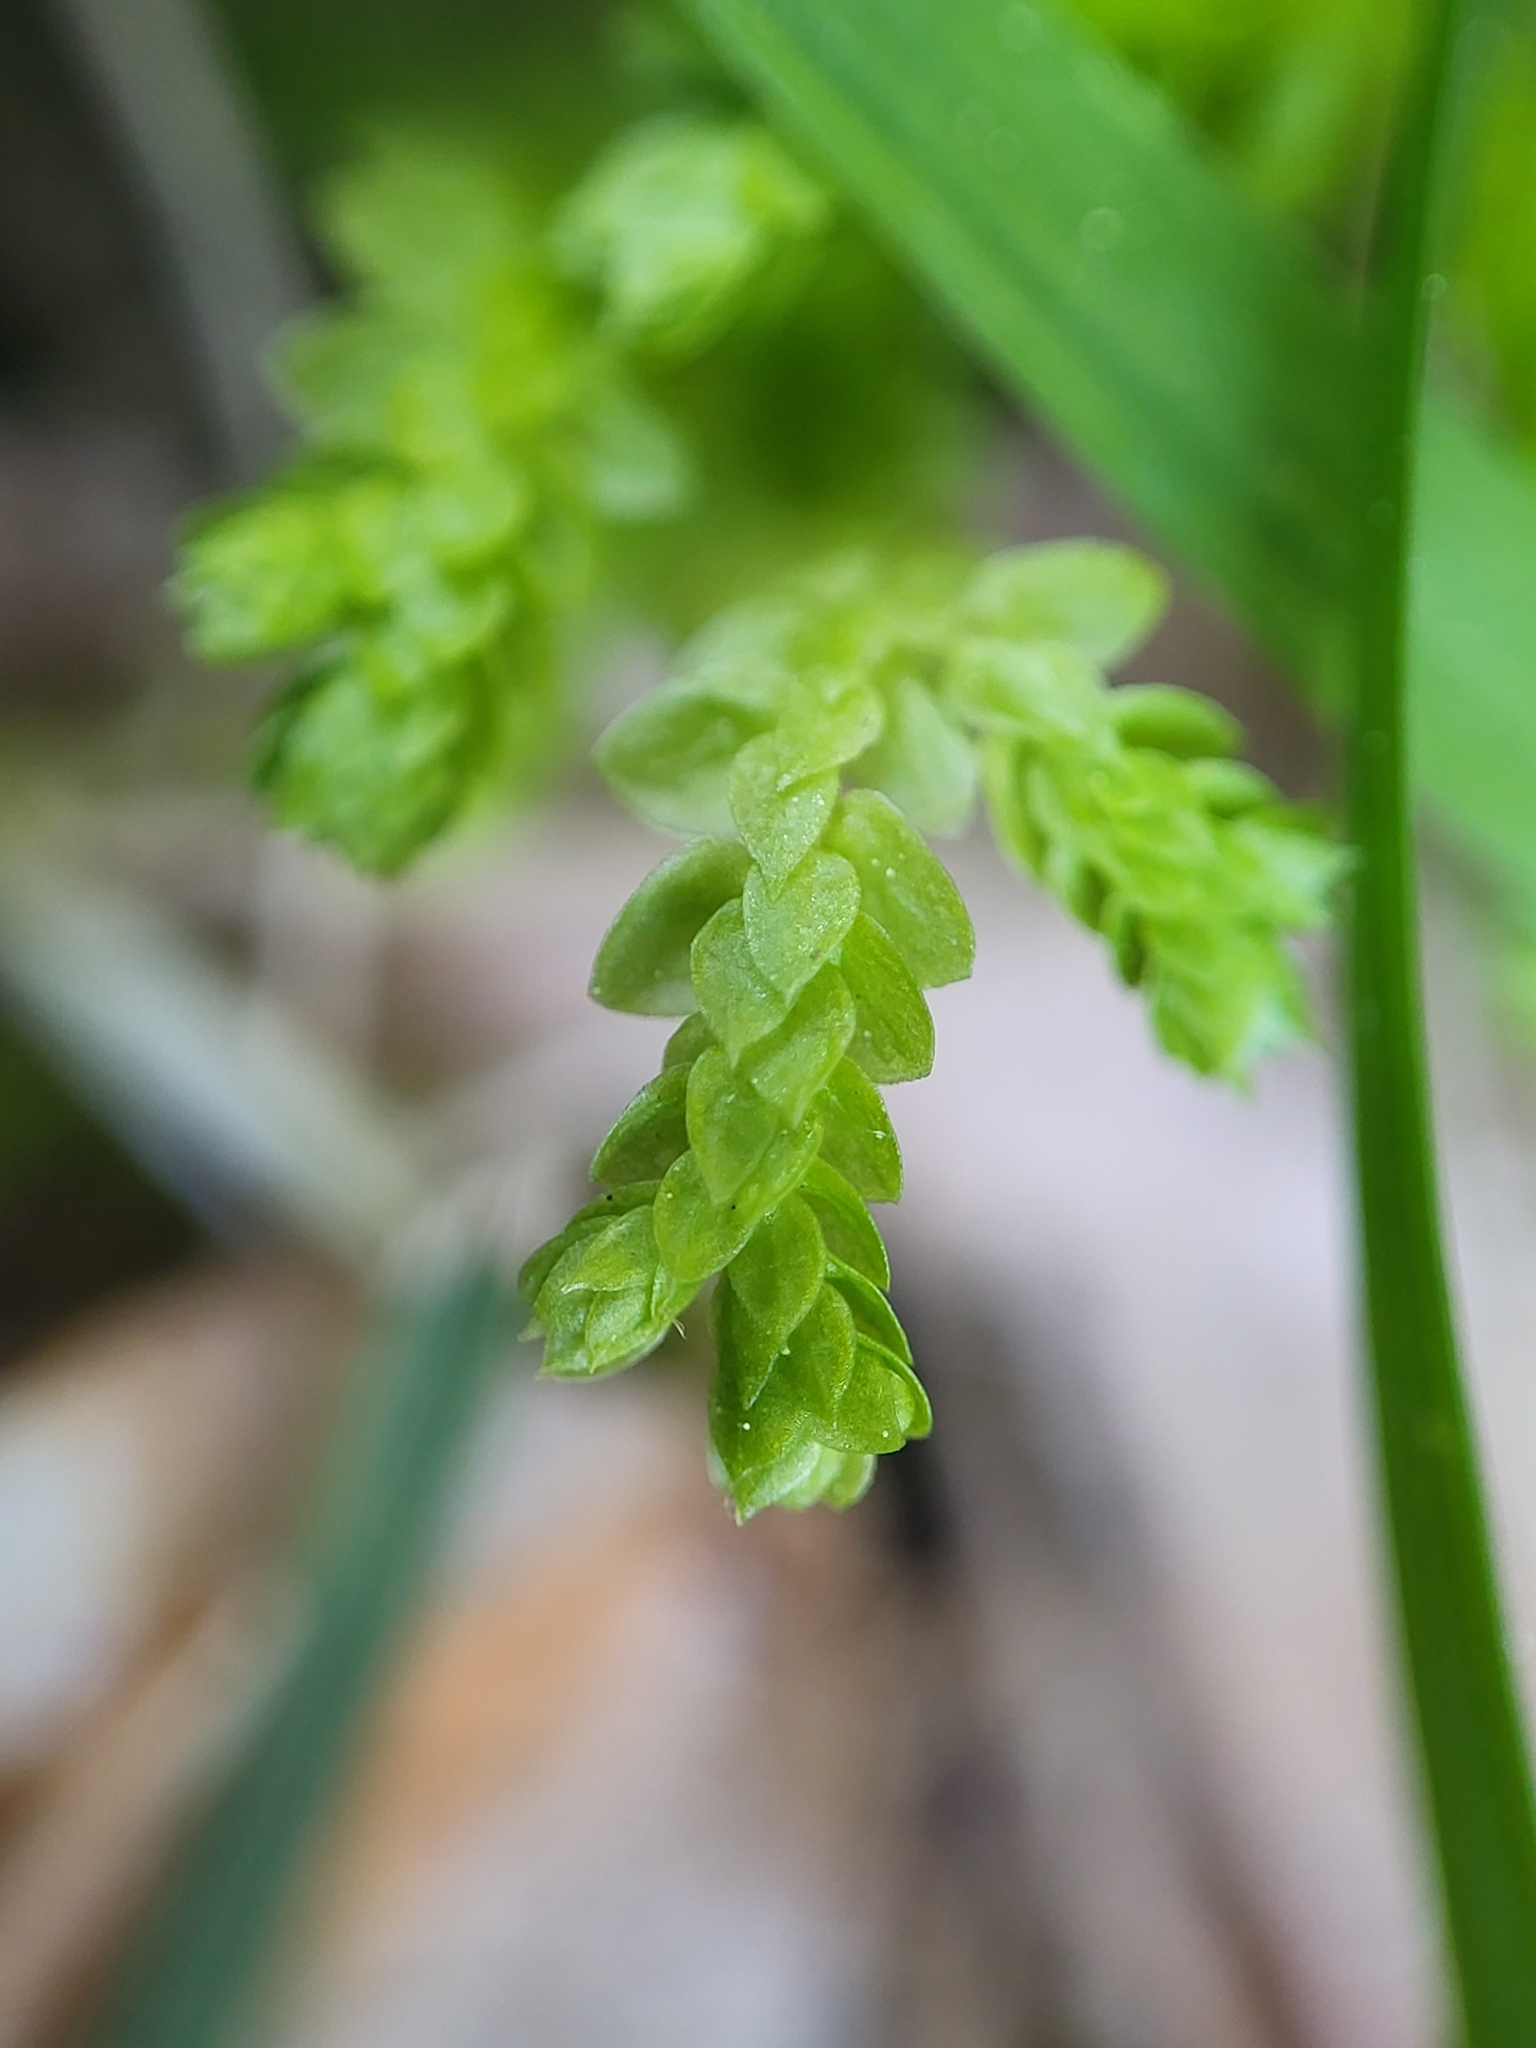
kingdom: Plantae
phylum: Tracheophyta
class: Lycopodiopsida
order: Selaginellales
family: Selaginellaceae
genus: Selaginella
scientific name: Selaginella apoda
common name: Creeping spikemoss
